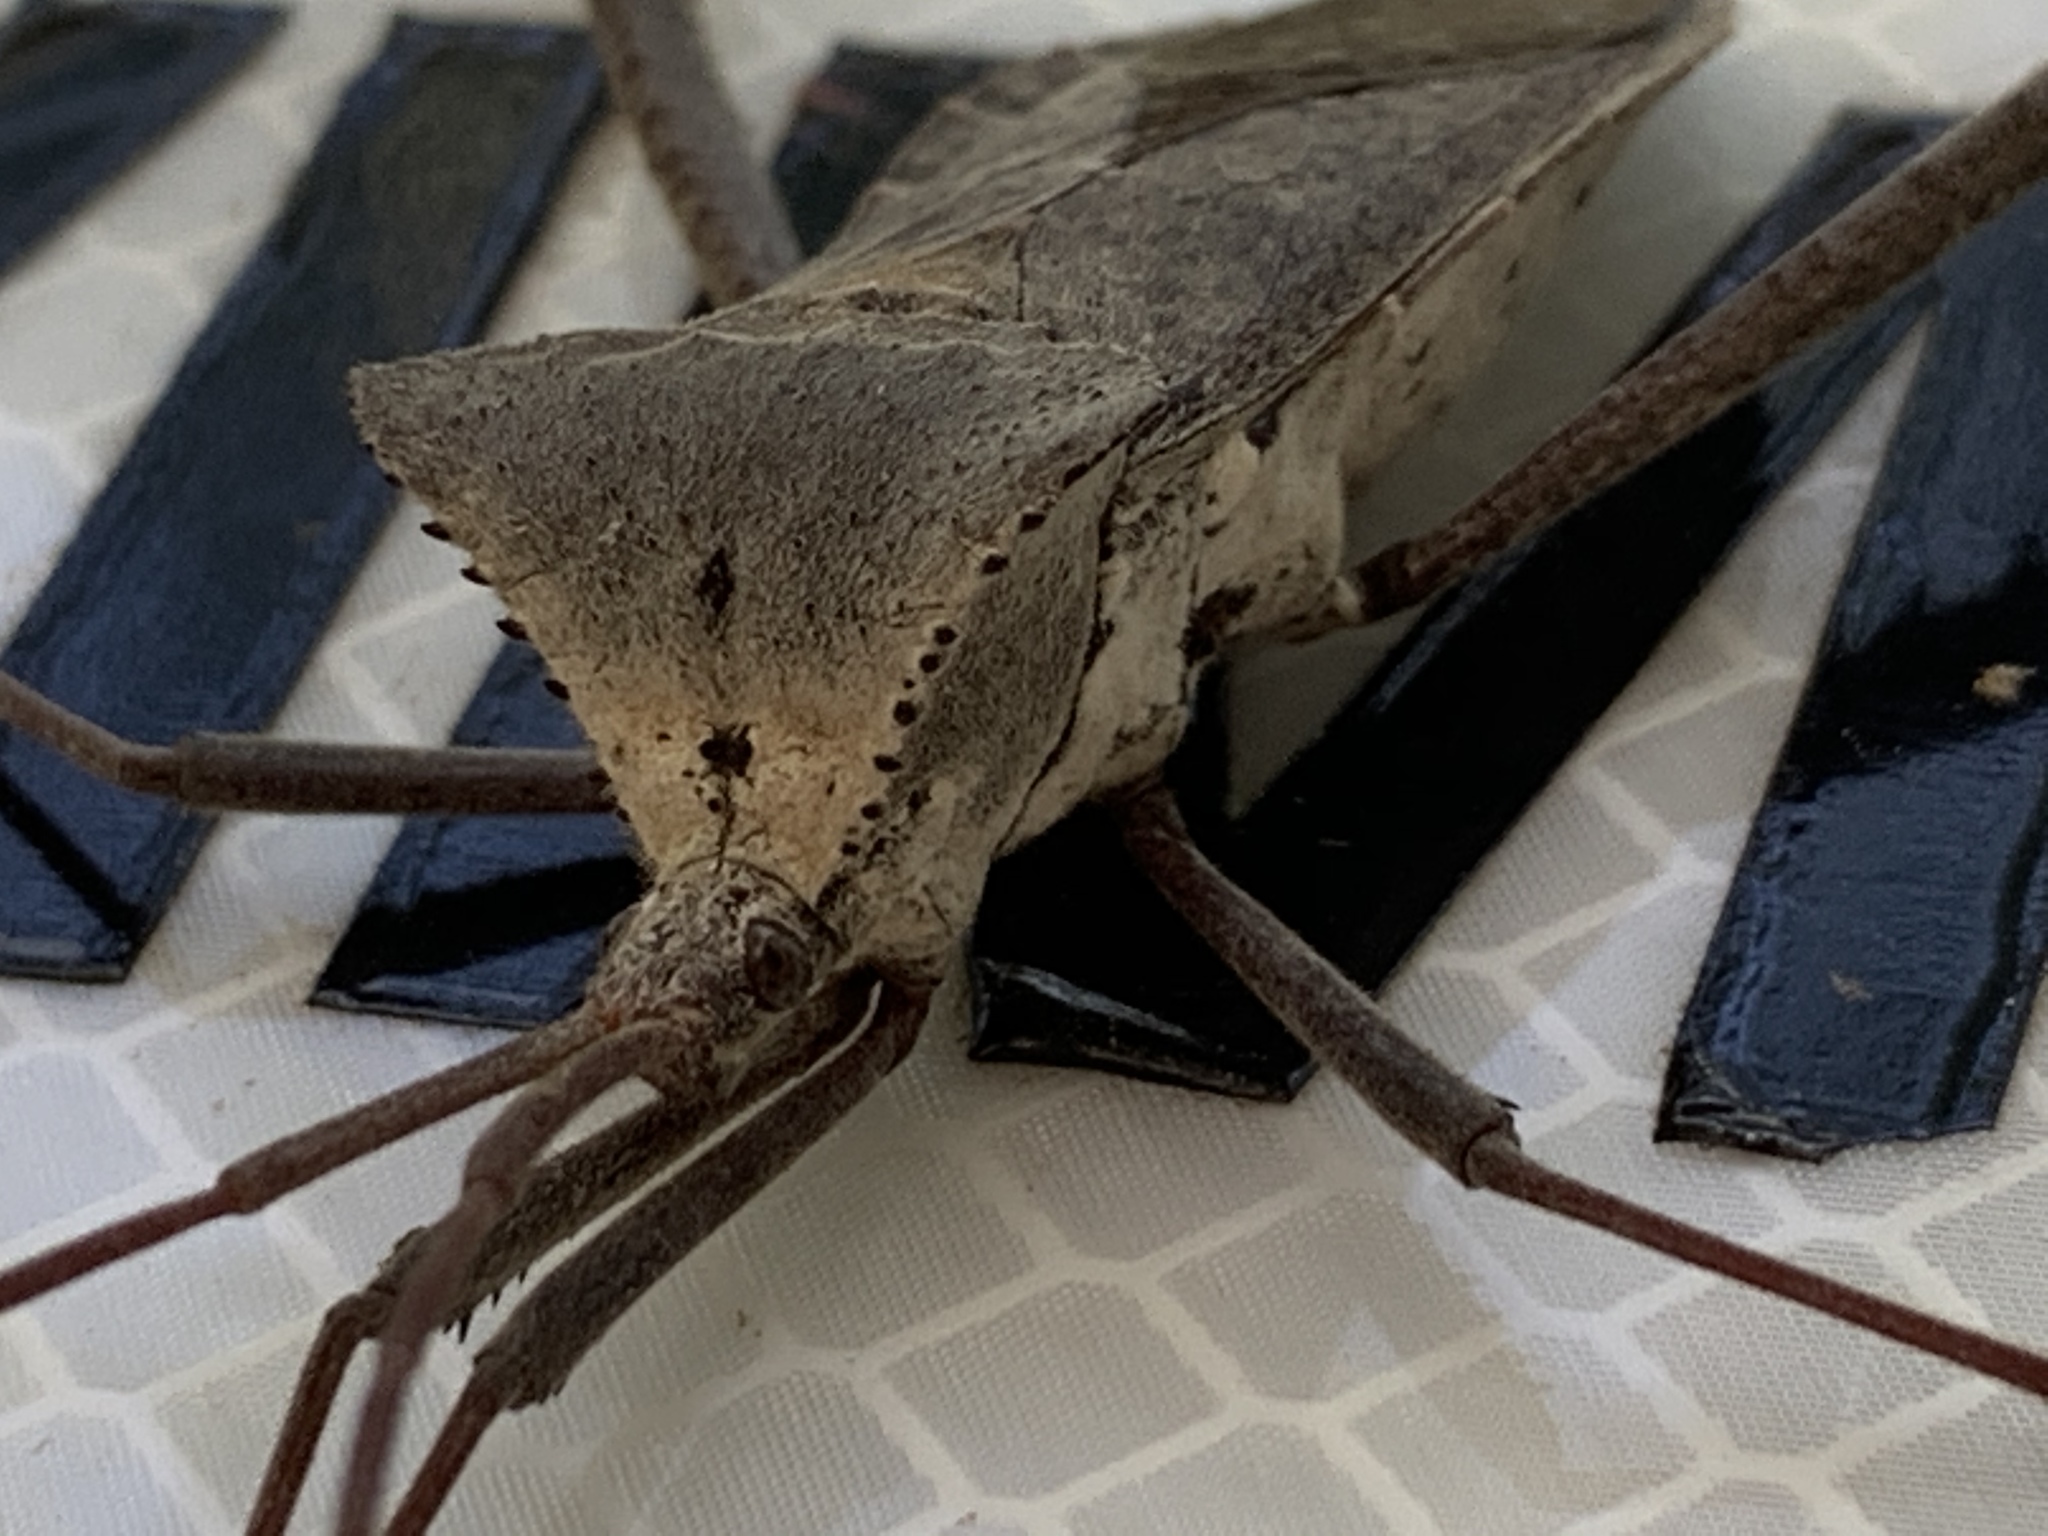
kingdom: Animalia
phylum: Arthropoda
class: Insecta
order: Hemiptera
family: Coreidae
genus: Acanthocephala
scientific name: Acanthocephala declivis
